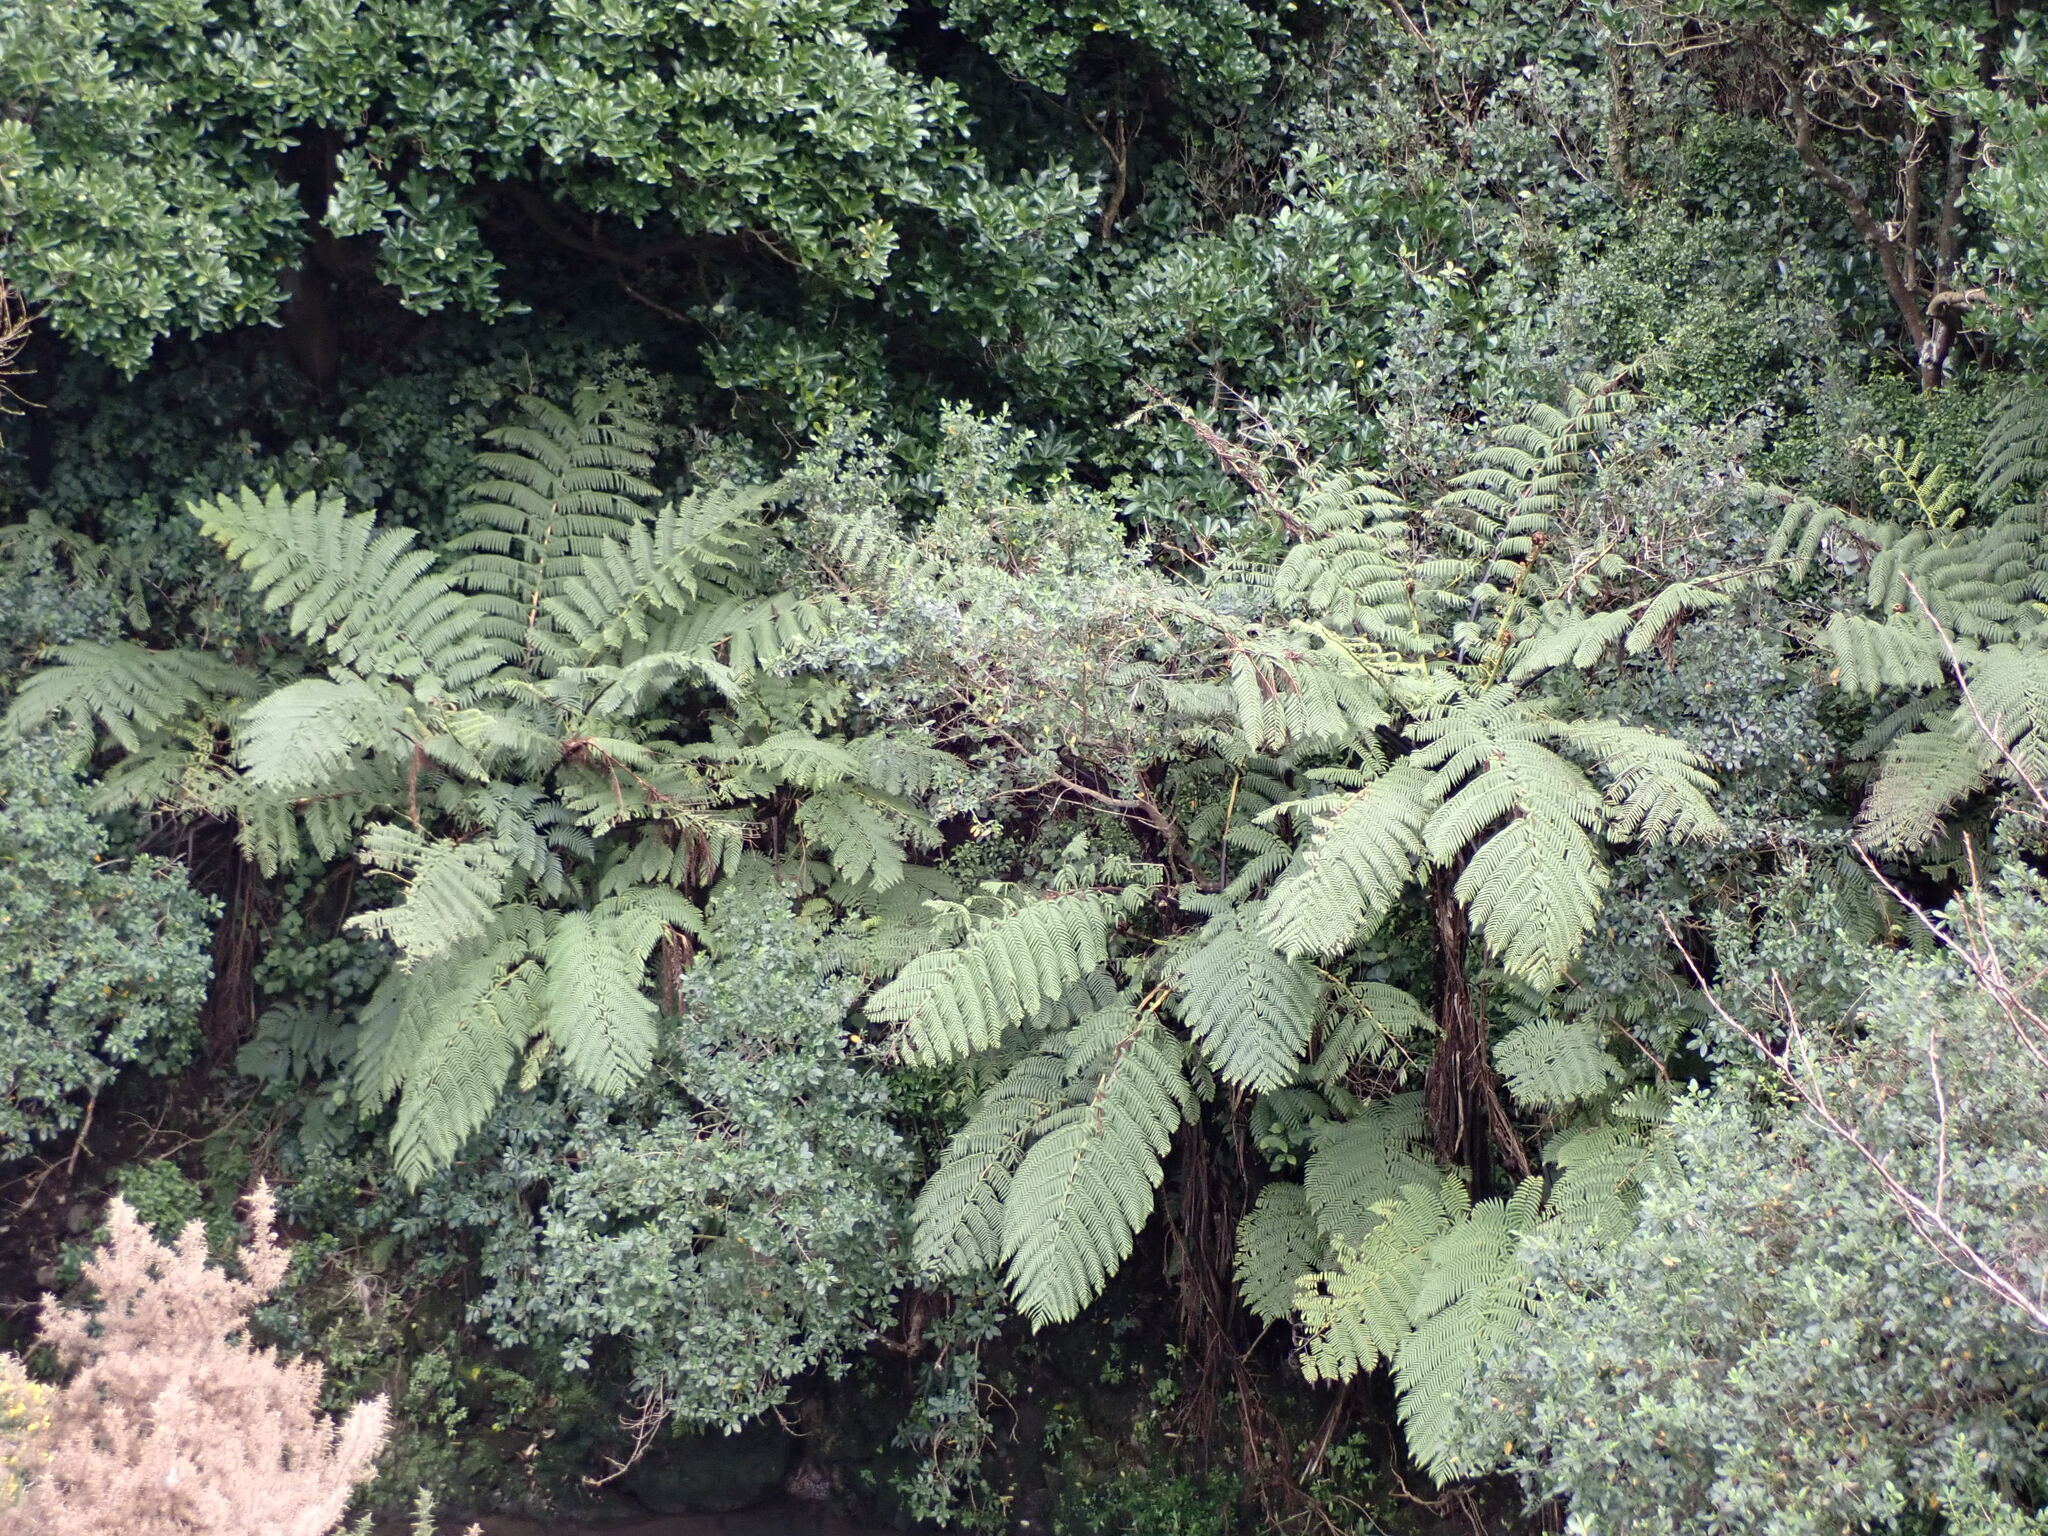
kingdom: Plantae
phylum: Tracheophyta
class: Polypodiopsida
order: Cyatheales
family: Cyatheaceae
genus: Sphaeropteris
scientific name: Sphaeropteris medullaris
